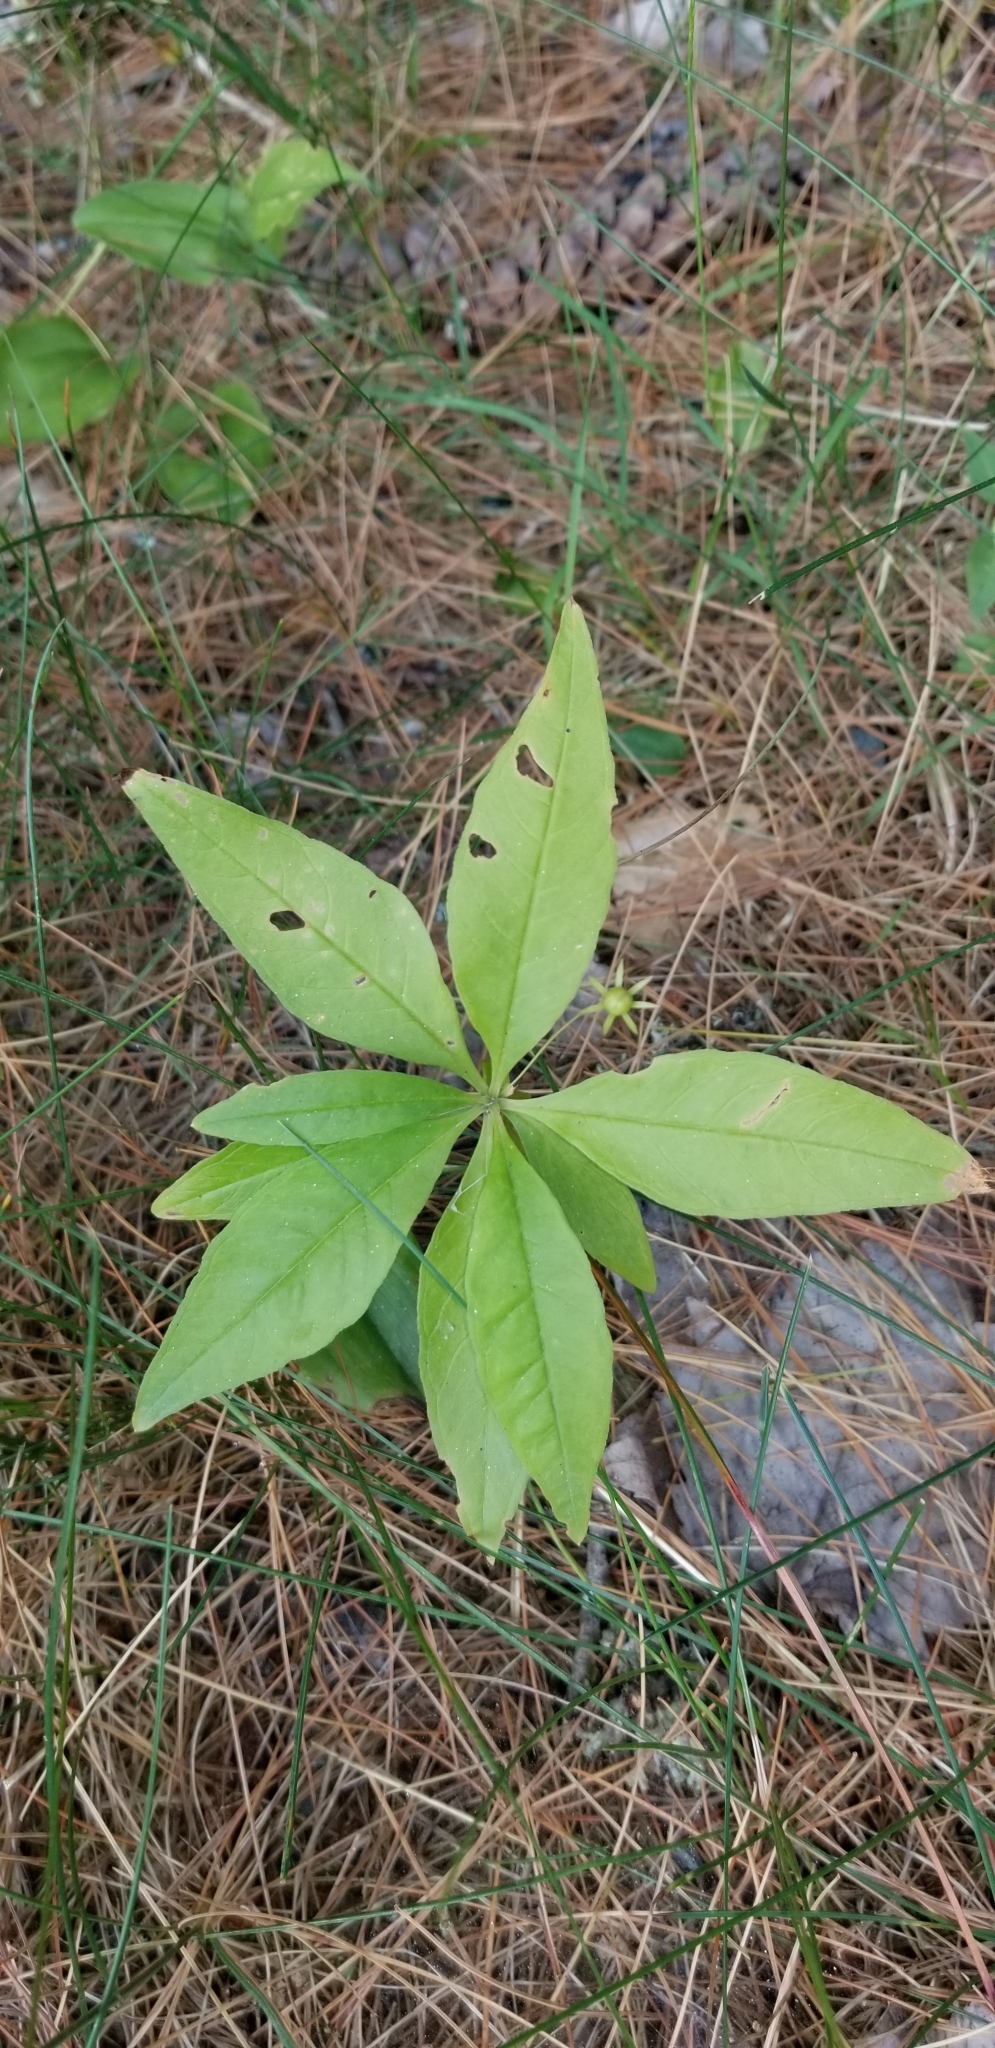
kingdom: Plantae
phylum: Tracheophyta
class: Magnoliopsida
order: Ericales
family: Primulaceae
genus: Lysimachia
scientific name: Lysimachia borealis
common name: American starflower
